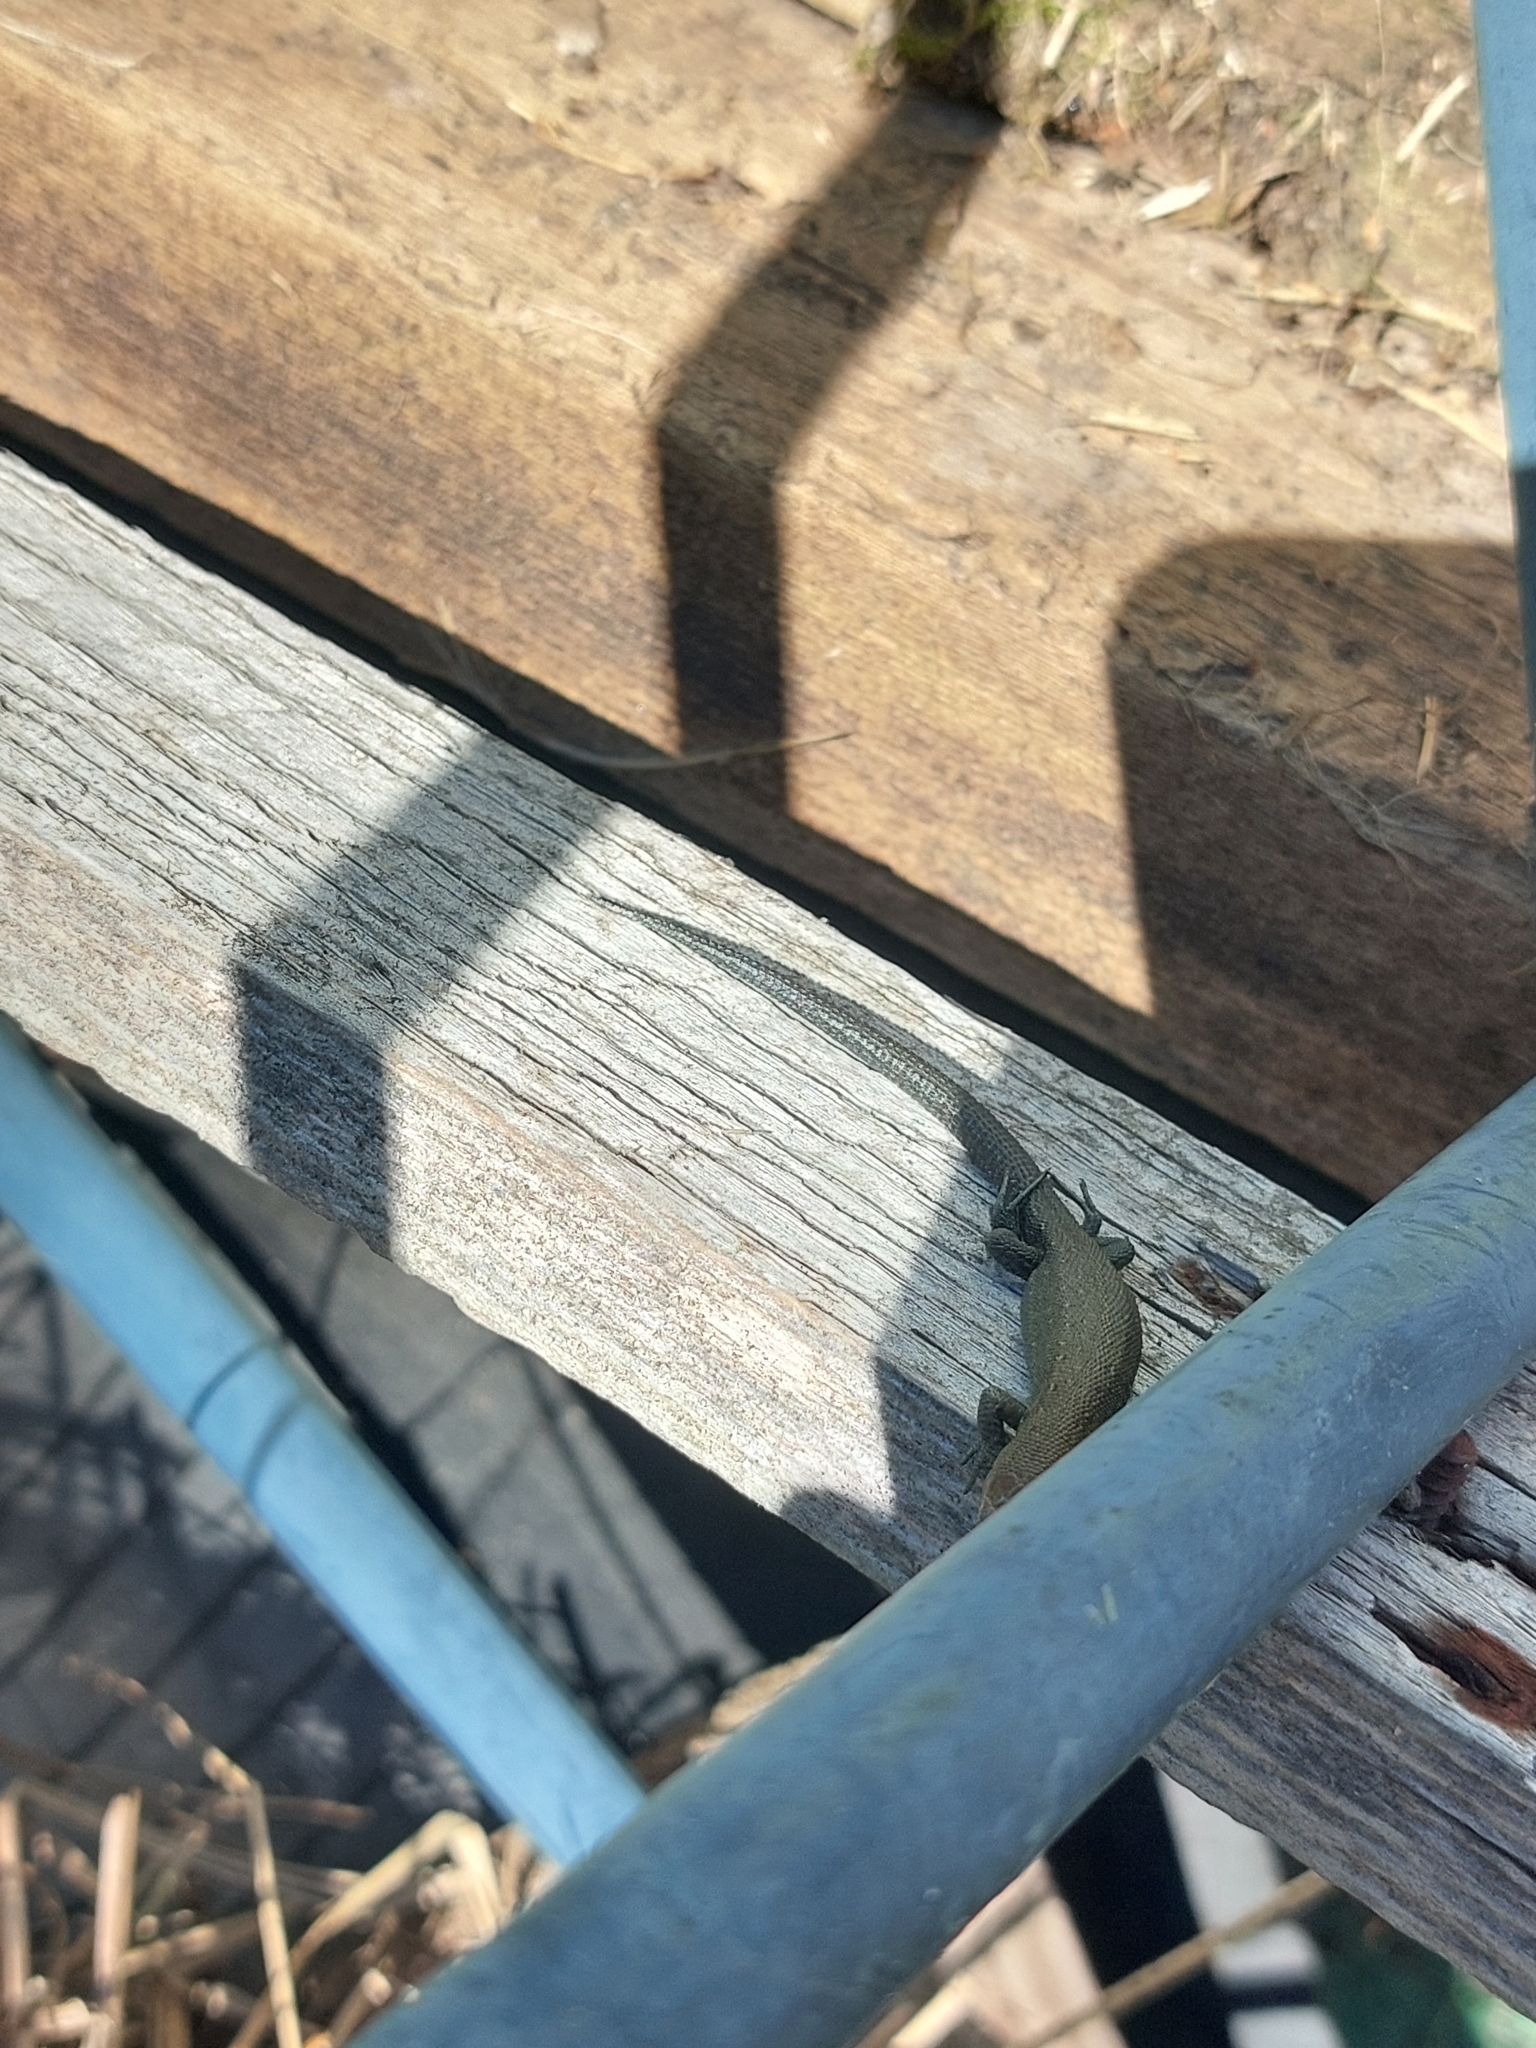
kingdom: Animalia
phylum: Chordata
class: Squamata
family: Lacertidae
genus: Zootoca
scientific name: Zootoca vivipara
